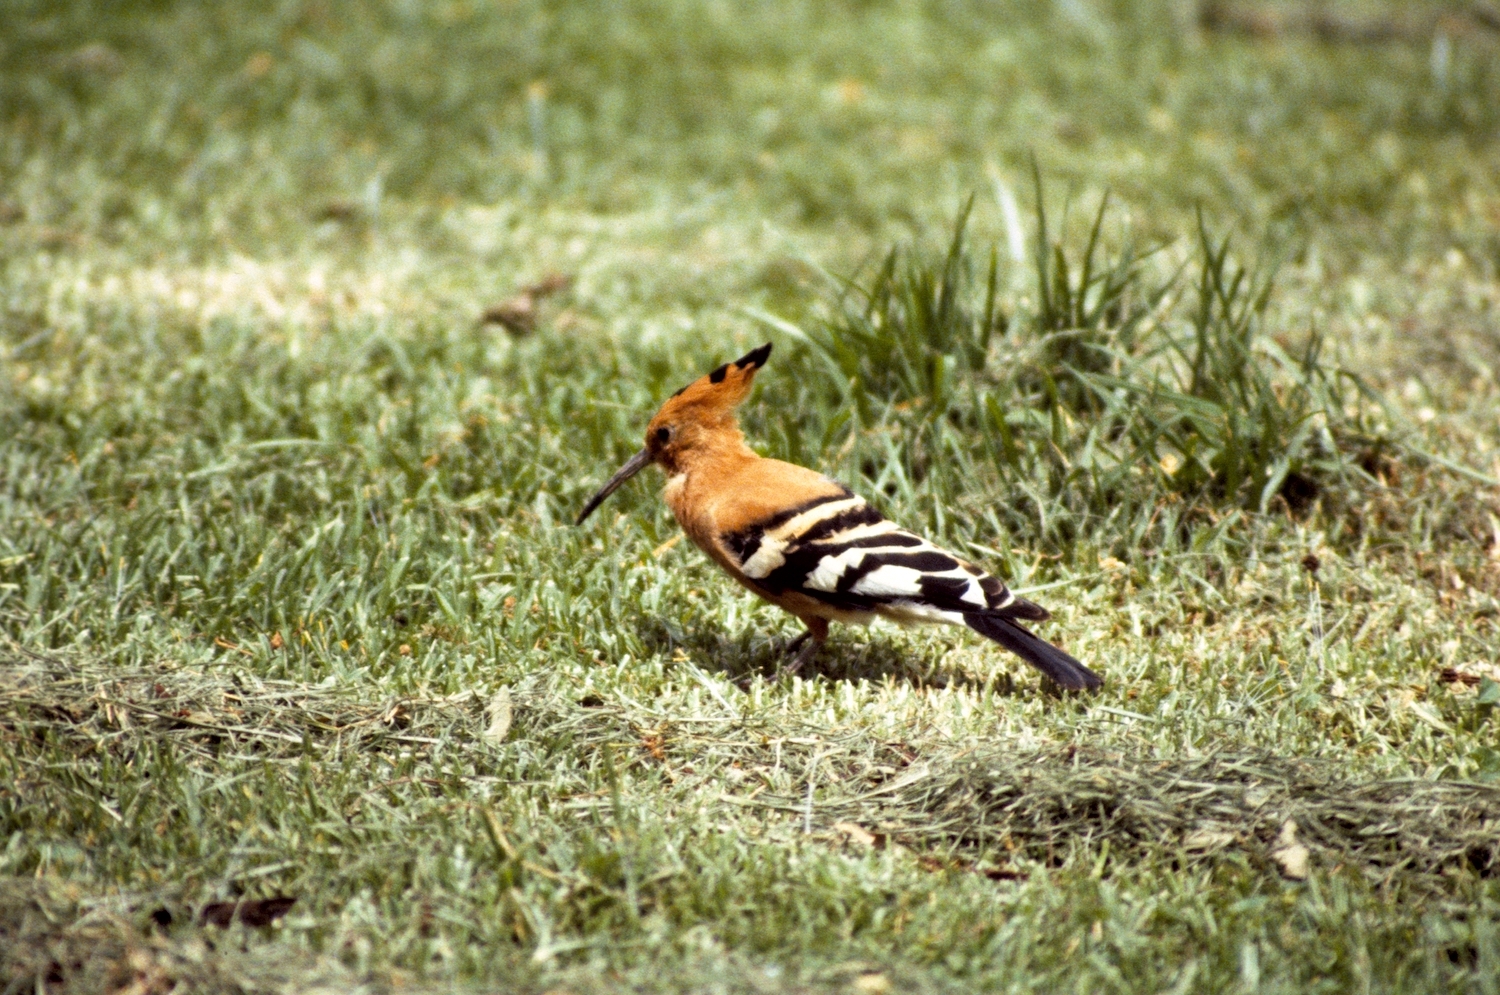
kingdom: Animalia
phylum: Chordata
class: Aves
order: Bucerotiformes
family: Upupidae
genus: Upupa
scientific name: Upupa africana
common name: African hoopoe
